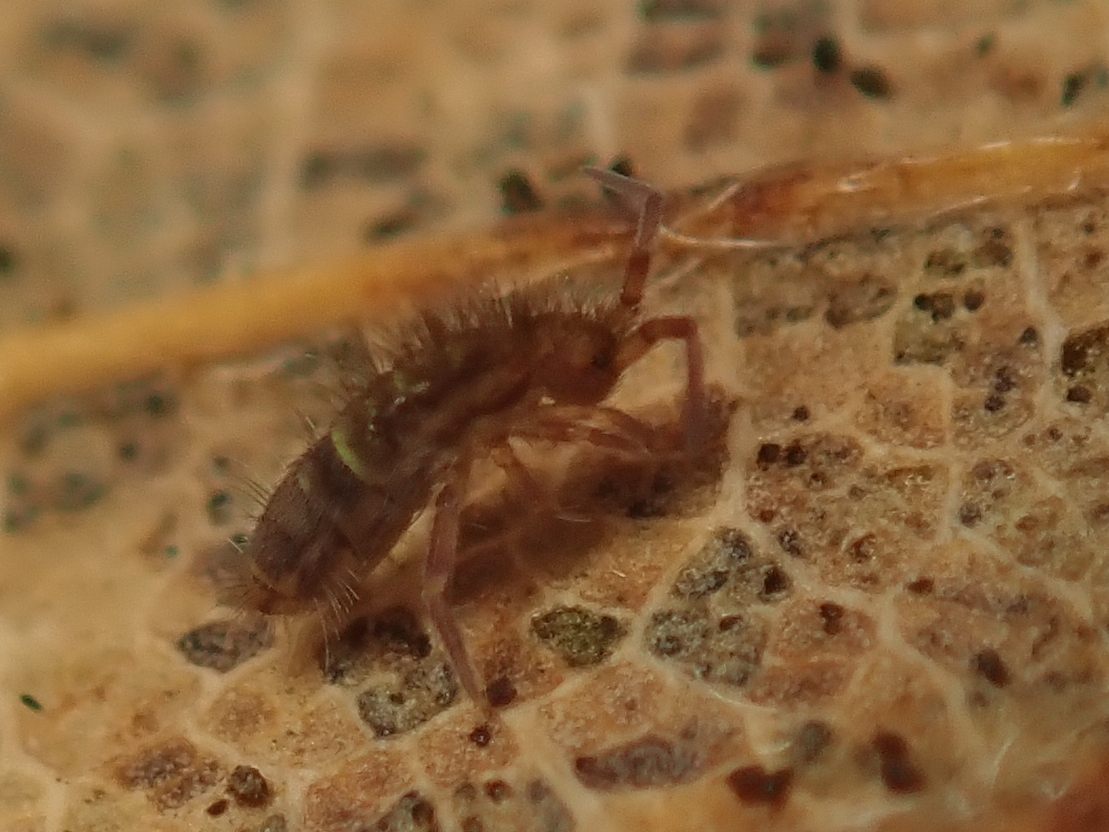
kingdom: Animalia
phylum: Arthropoda
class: Collembola
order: Entomobryomorpha
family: Orchesellidae
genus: Orchesella
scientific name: Orchesella cincta
